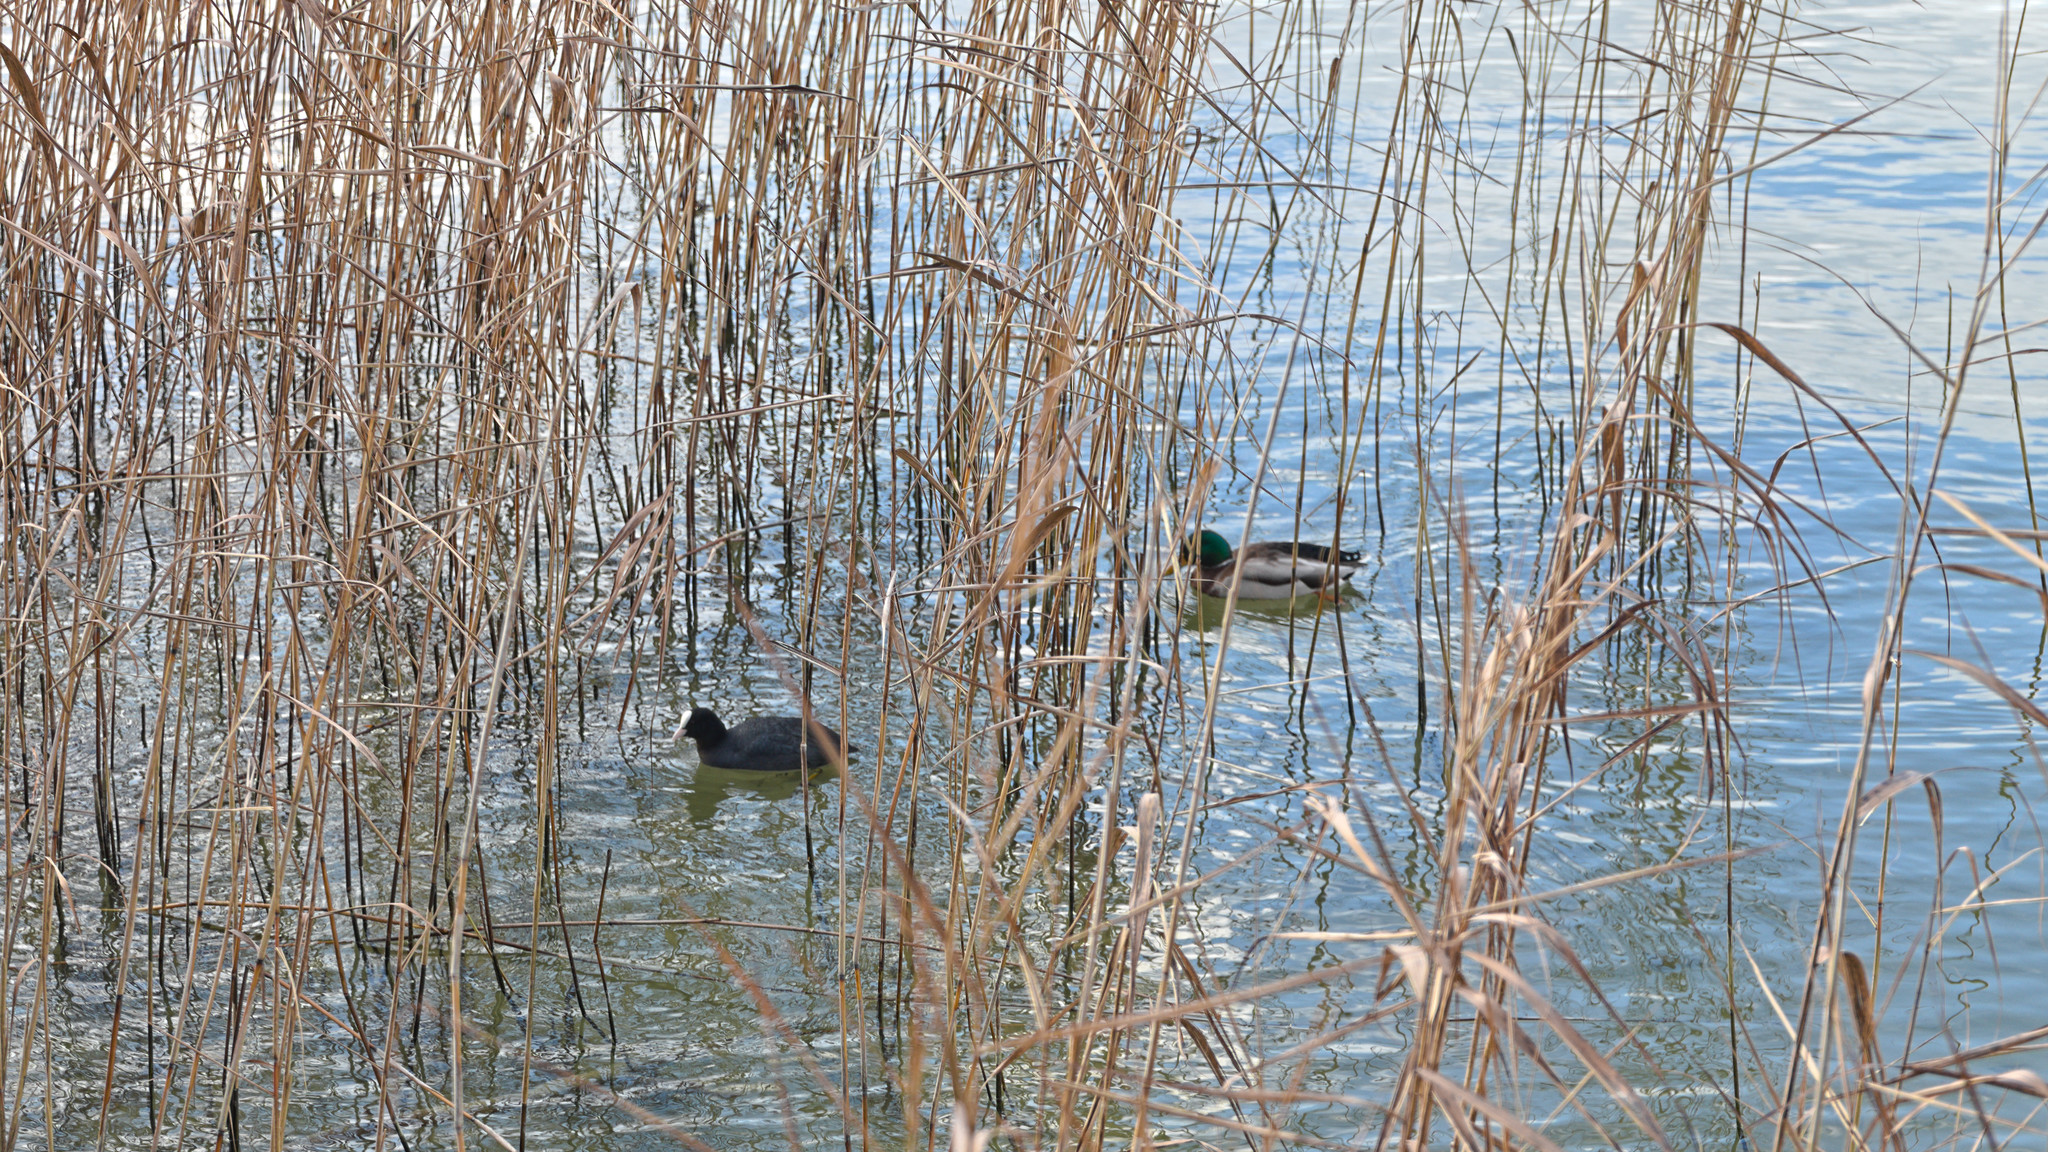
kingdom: Animalia
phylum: Chordata
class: Aves
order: Gruiformes
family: Rallidae
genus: Fulica
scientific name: Fulica atra
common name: Eurasian coot
